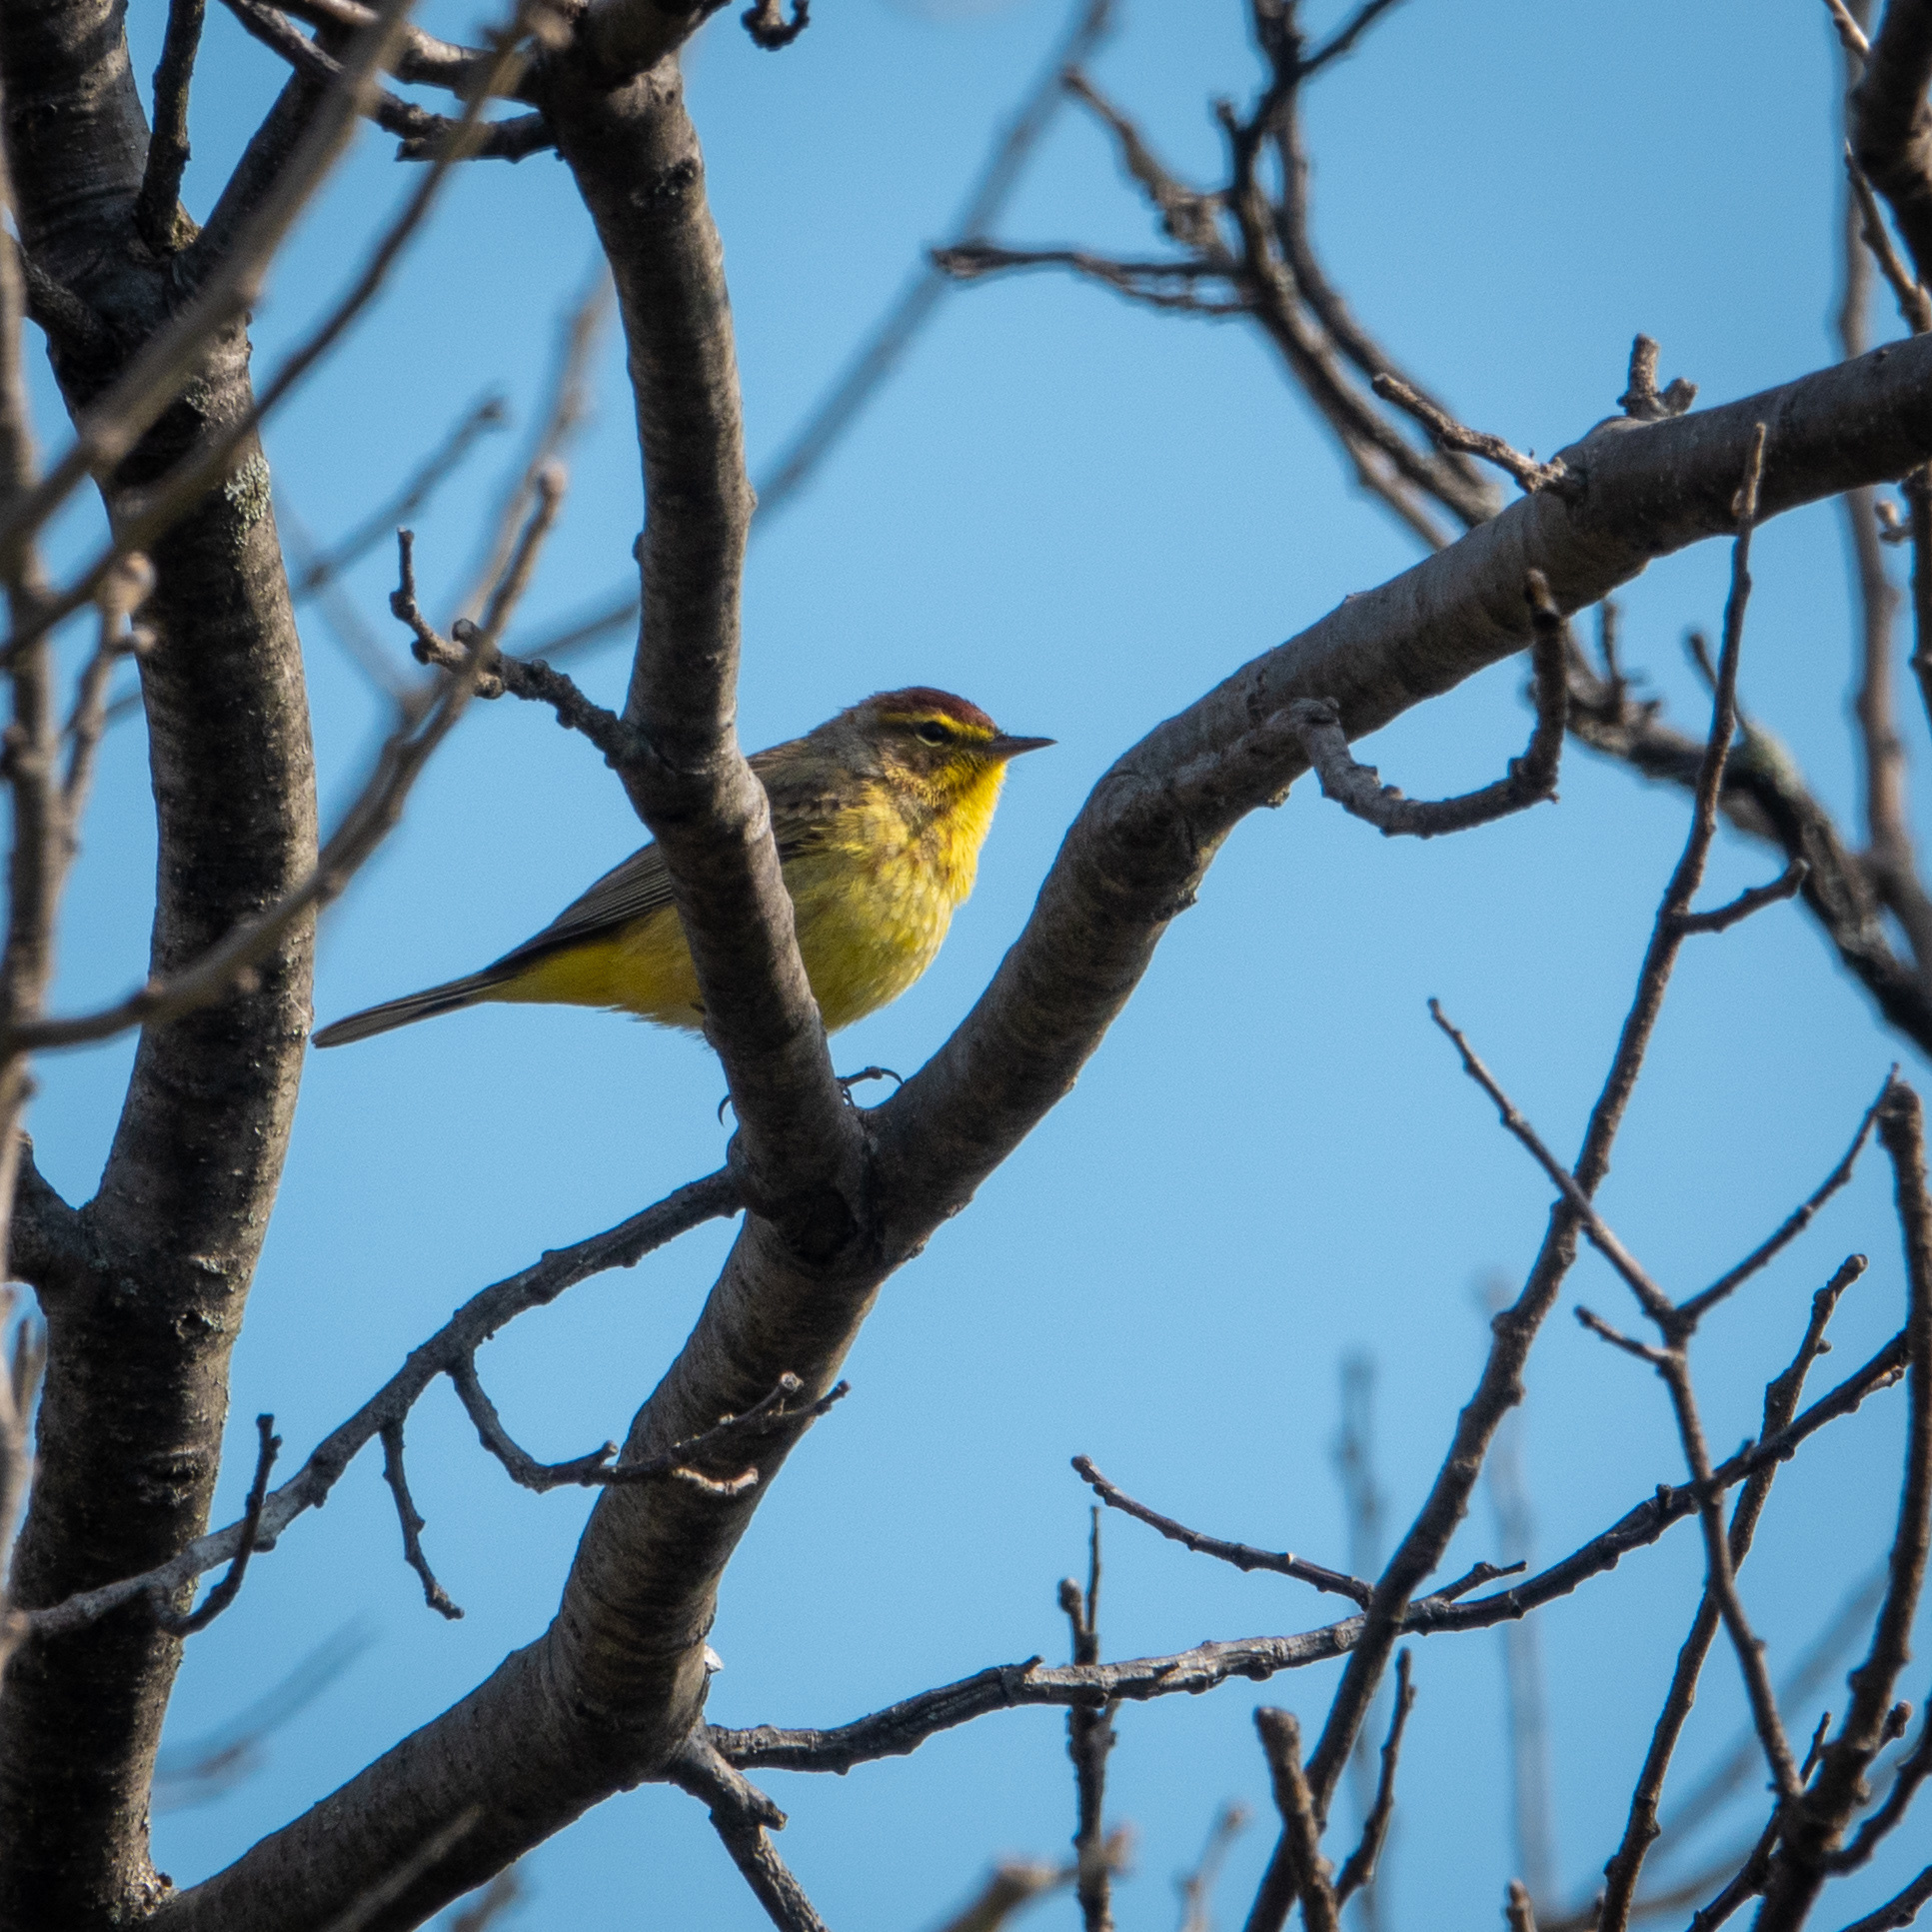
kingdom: Animalia
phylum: Chordata
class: Aves
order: Passeriformes
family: Parulidae
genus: Setophaga
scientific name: Setophaga palmarum
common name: Palm warbler
